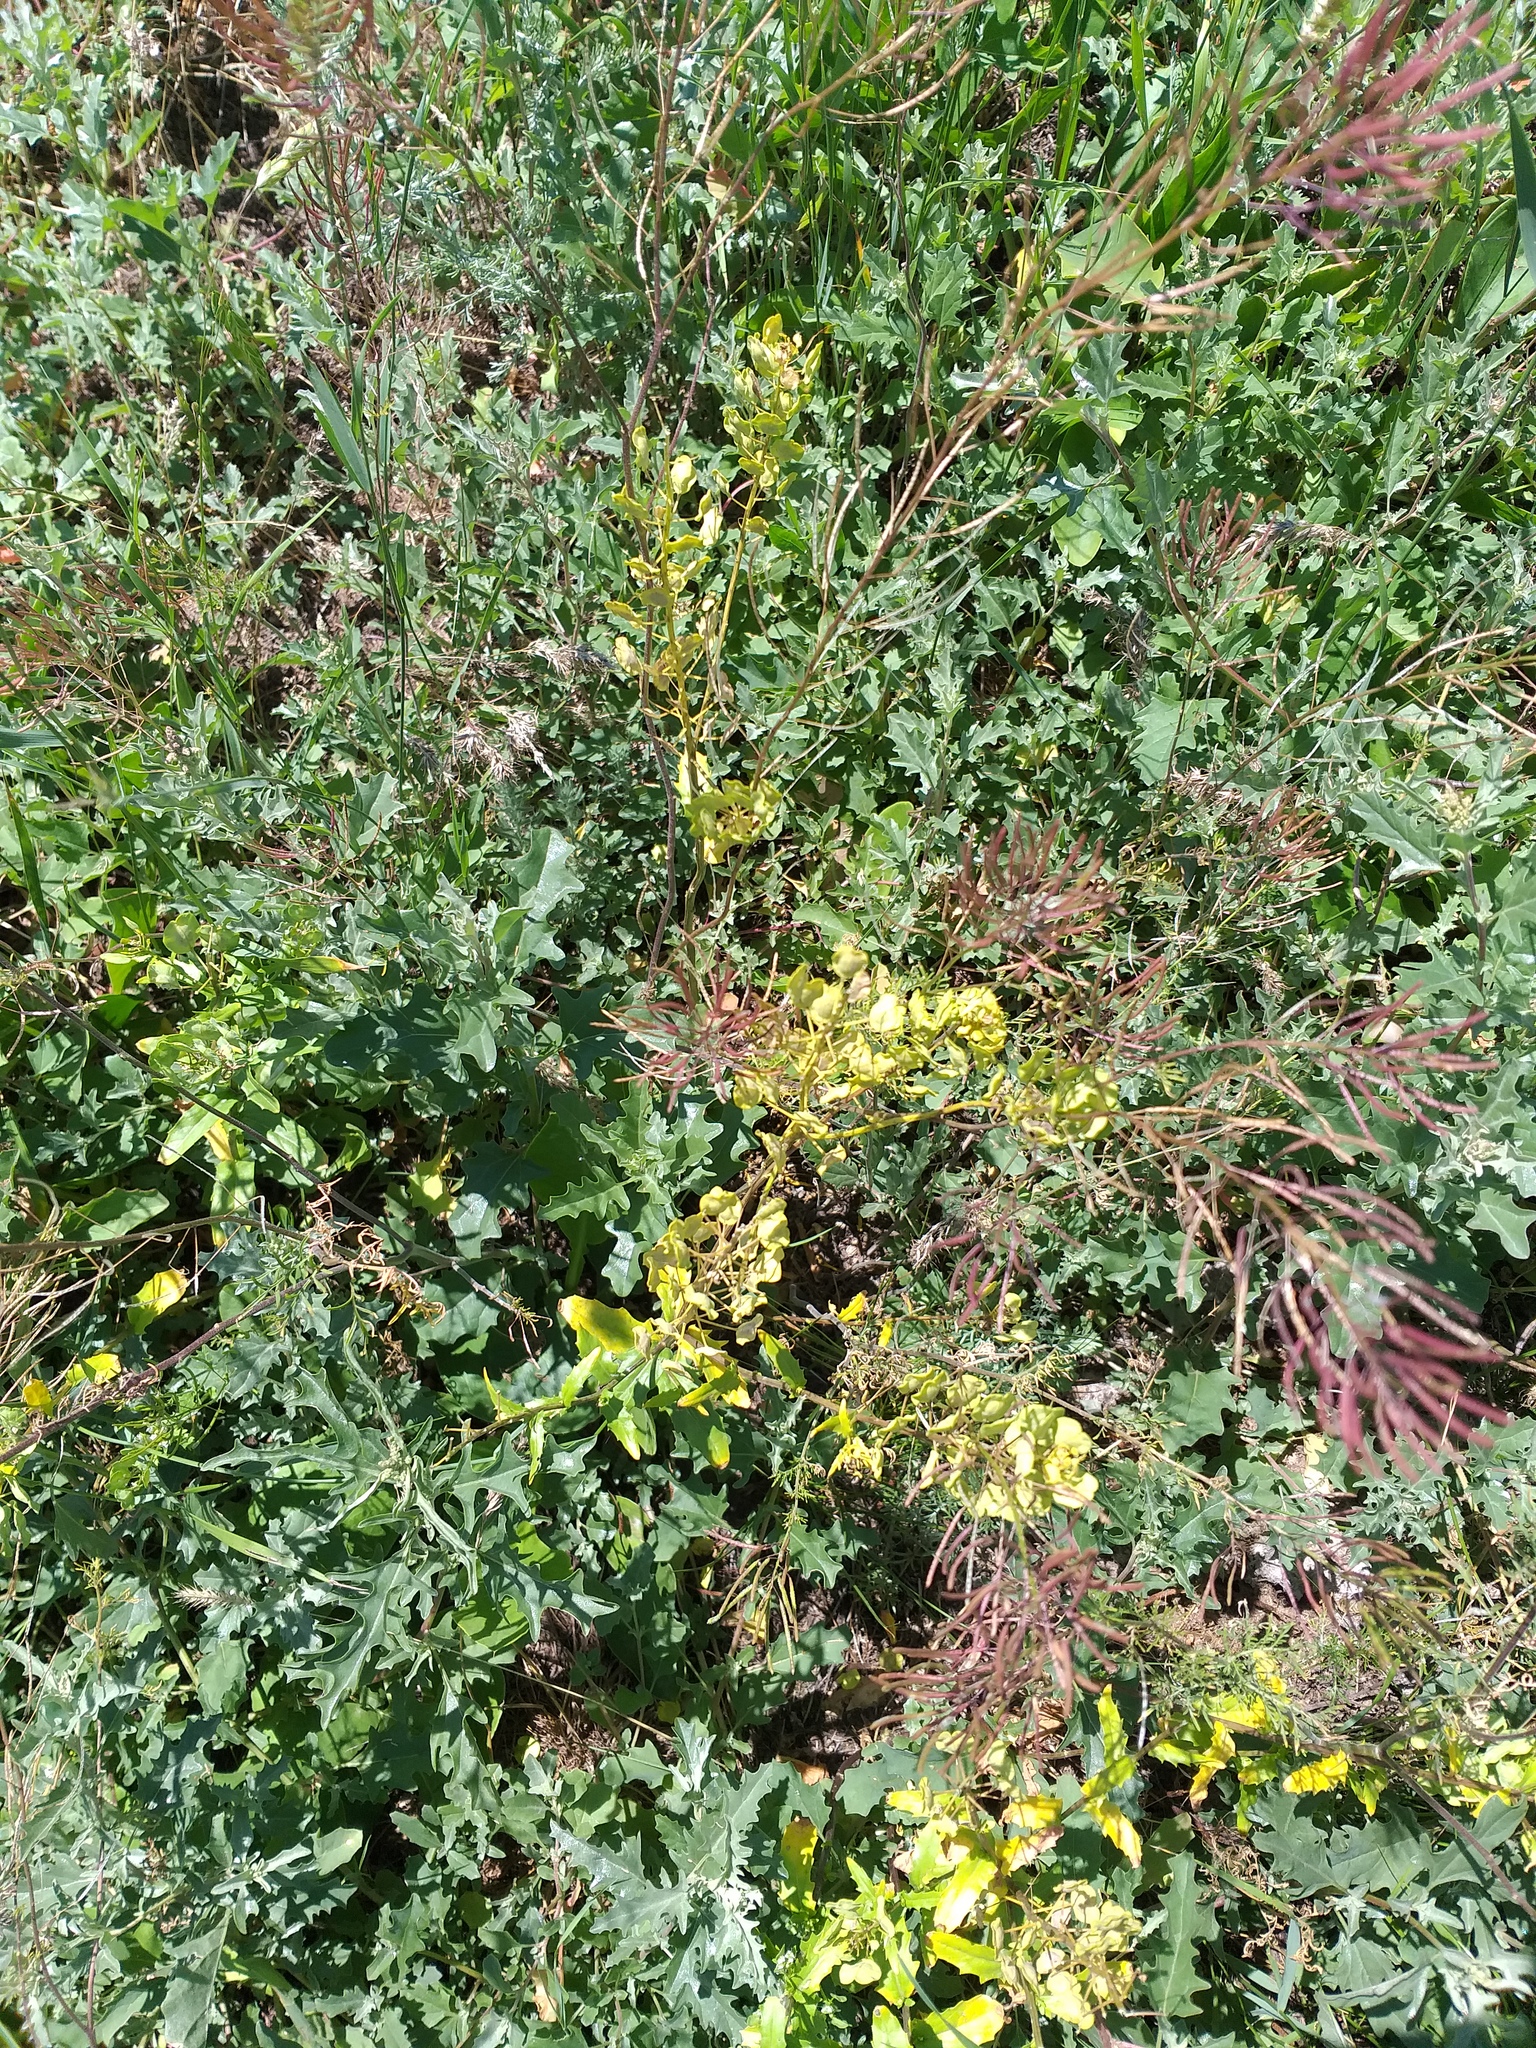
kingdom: Plantae
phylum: Tracheophyta
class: Magnoliopsida
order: Brassicales
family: Brassicaceae
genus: Descurainia
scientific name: Descurainia sophia
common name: Flixweed
